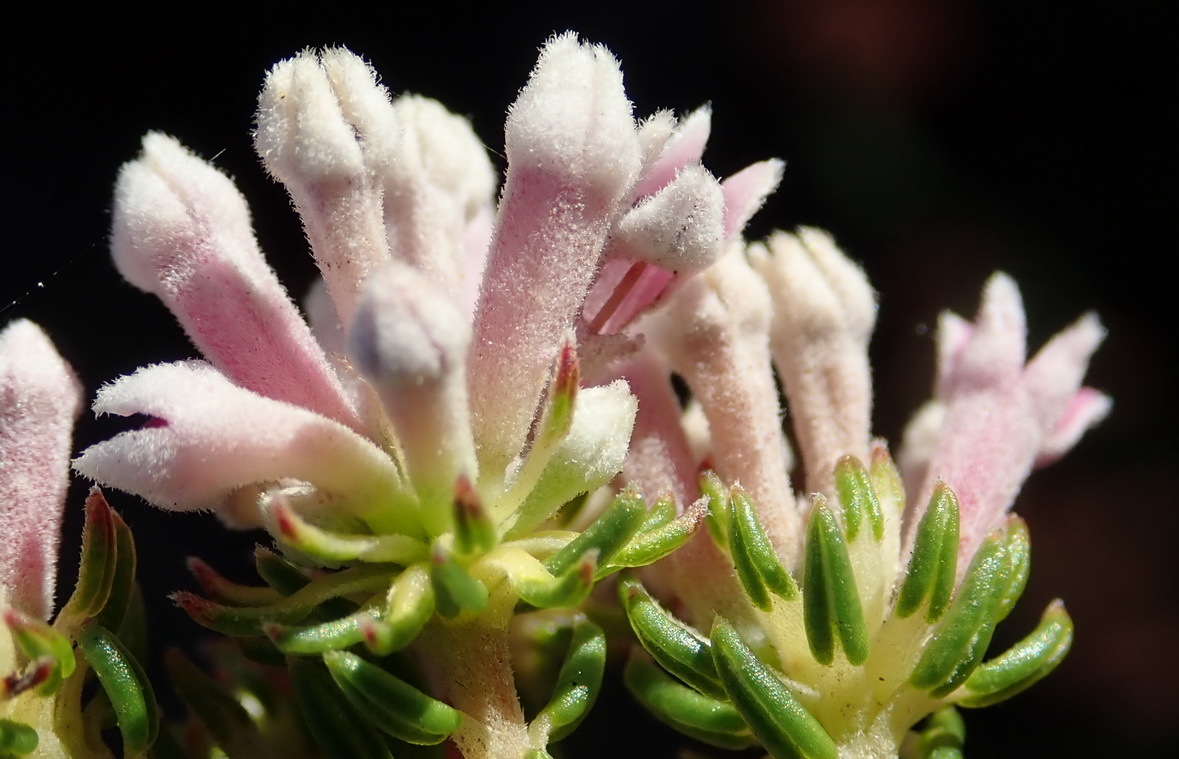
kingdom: Plantae
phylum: Tracheophyta
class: Magnoliopsida
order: Rosales
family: Rhamnaceae
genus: Phylica
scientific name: Phylica lachneaeoides
